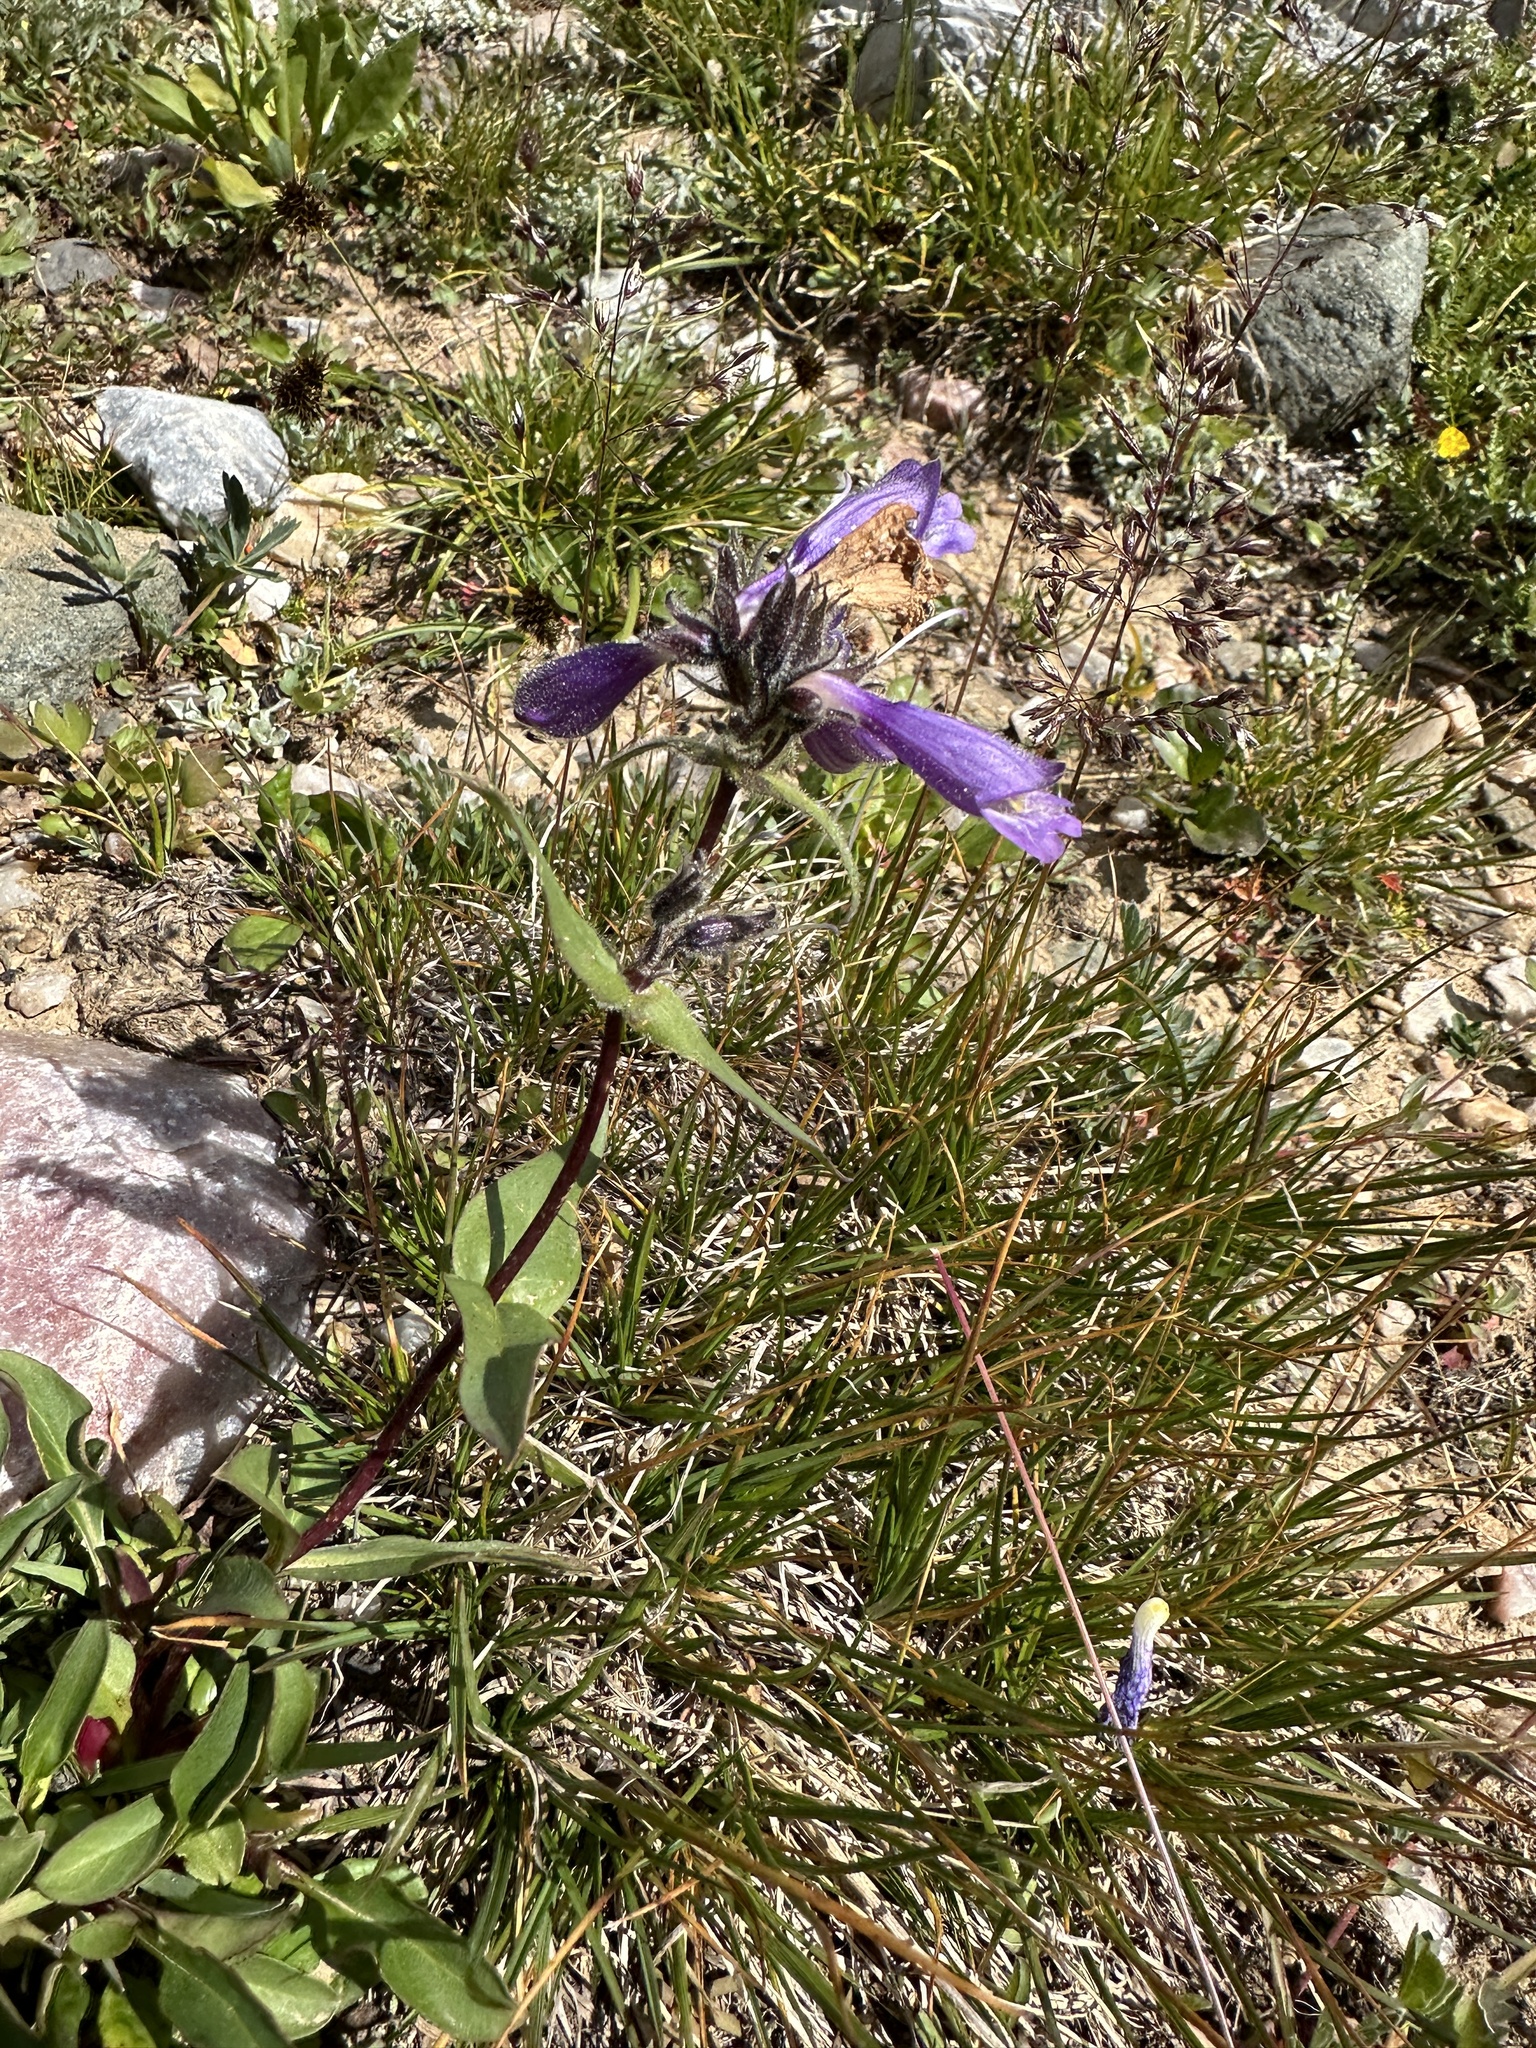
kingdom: Plantae
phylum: Tracheophyta
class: Magnoliopsida
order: Lamiales
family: Plantaginaceae
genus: Penstemon
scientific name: Penstemon whippleanus
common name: Whipple's penstemon
